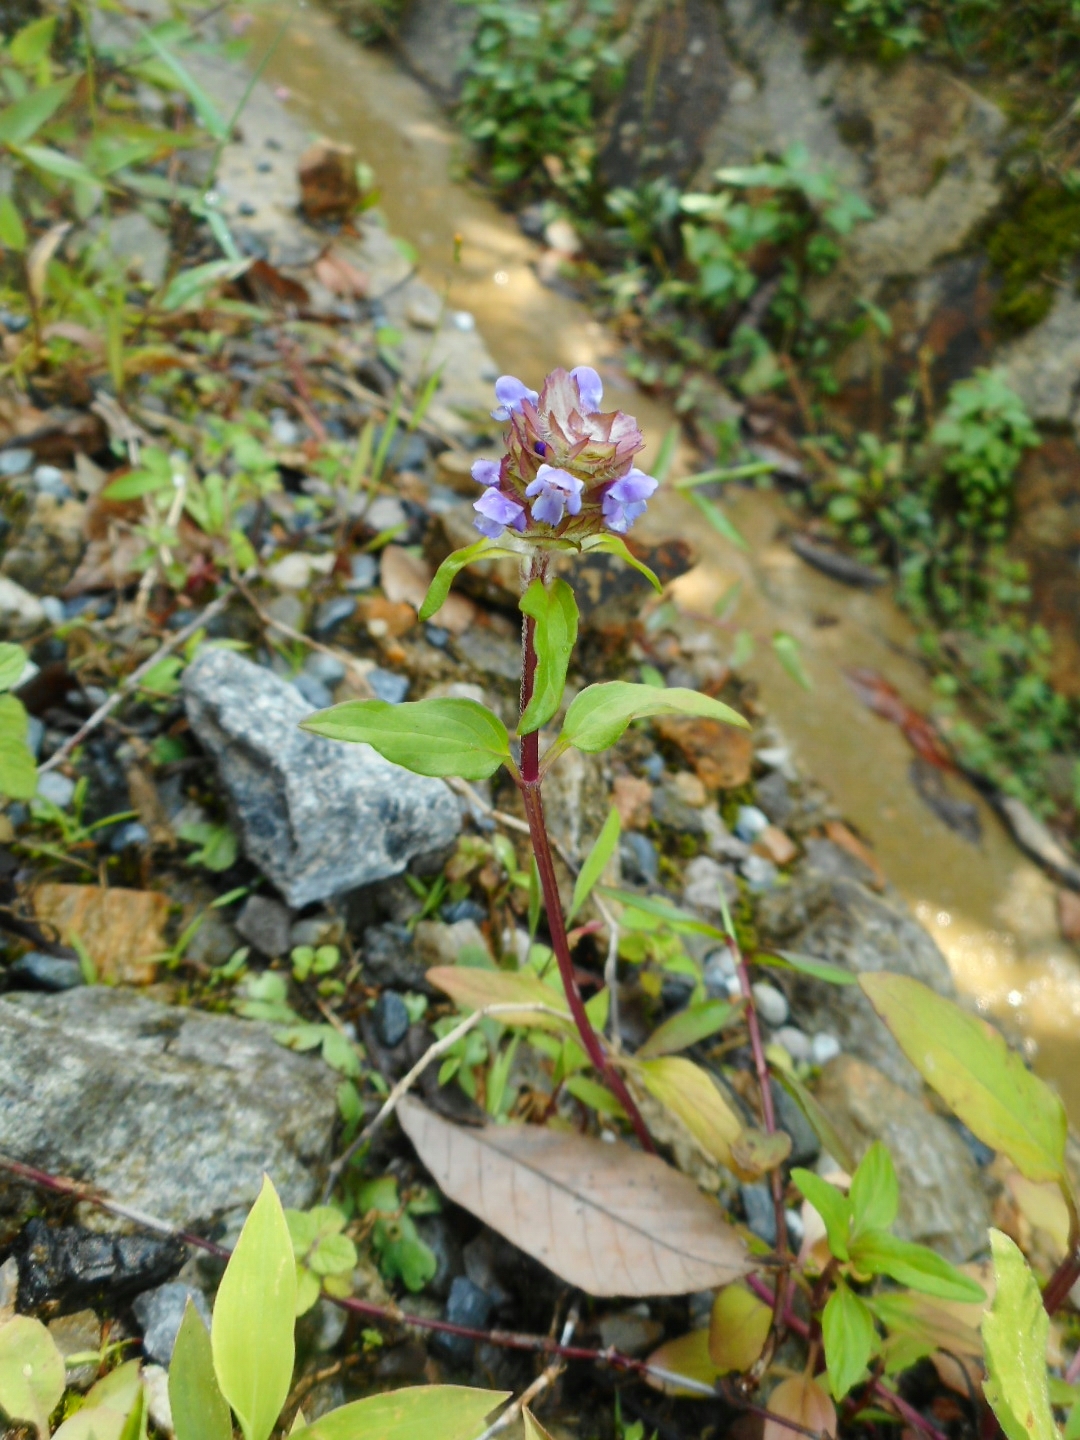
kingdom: Plantae
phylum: Tracheophyta
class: Magnoliopsida
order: Lamiales
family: Lamiaceae
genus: Prunella
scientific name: Prunella vulgaris
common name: Heal-all
